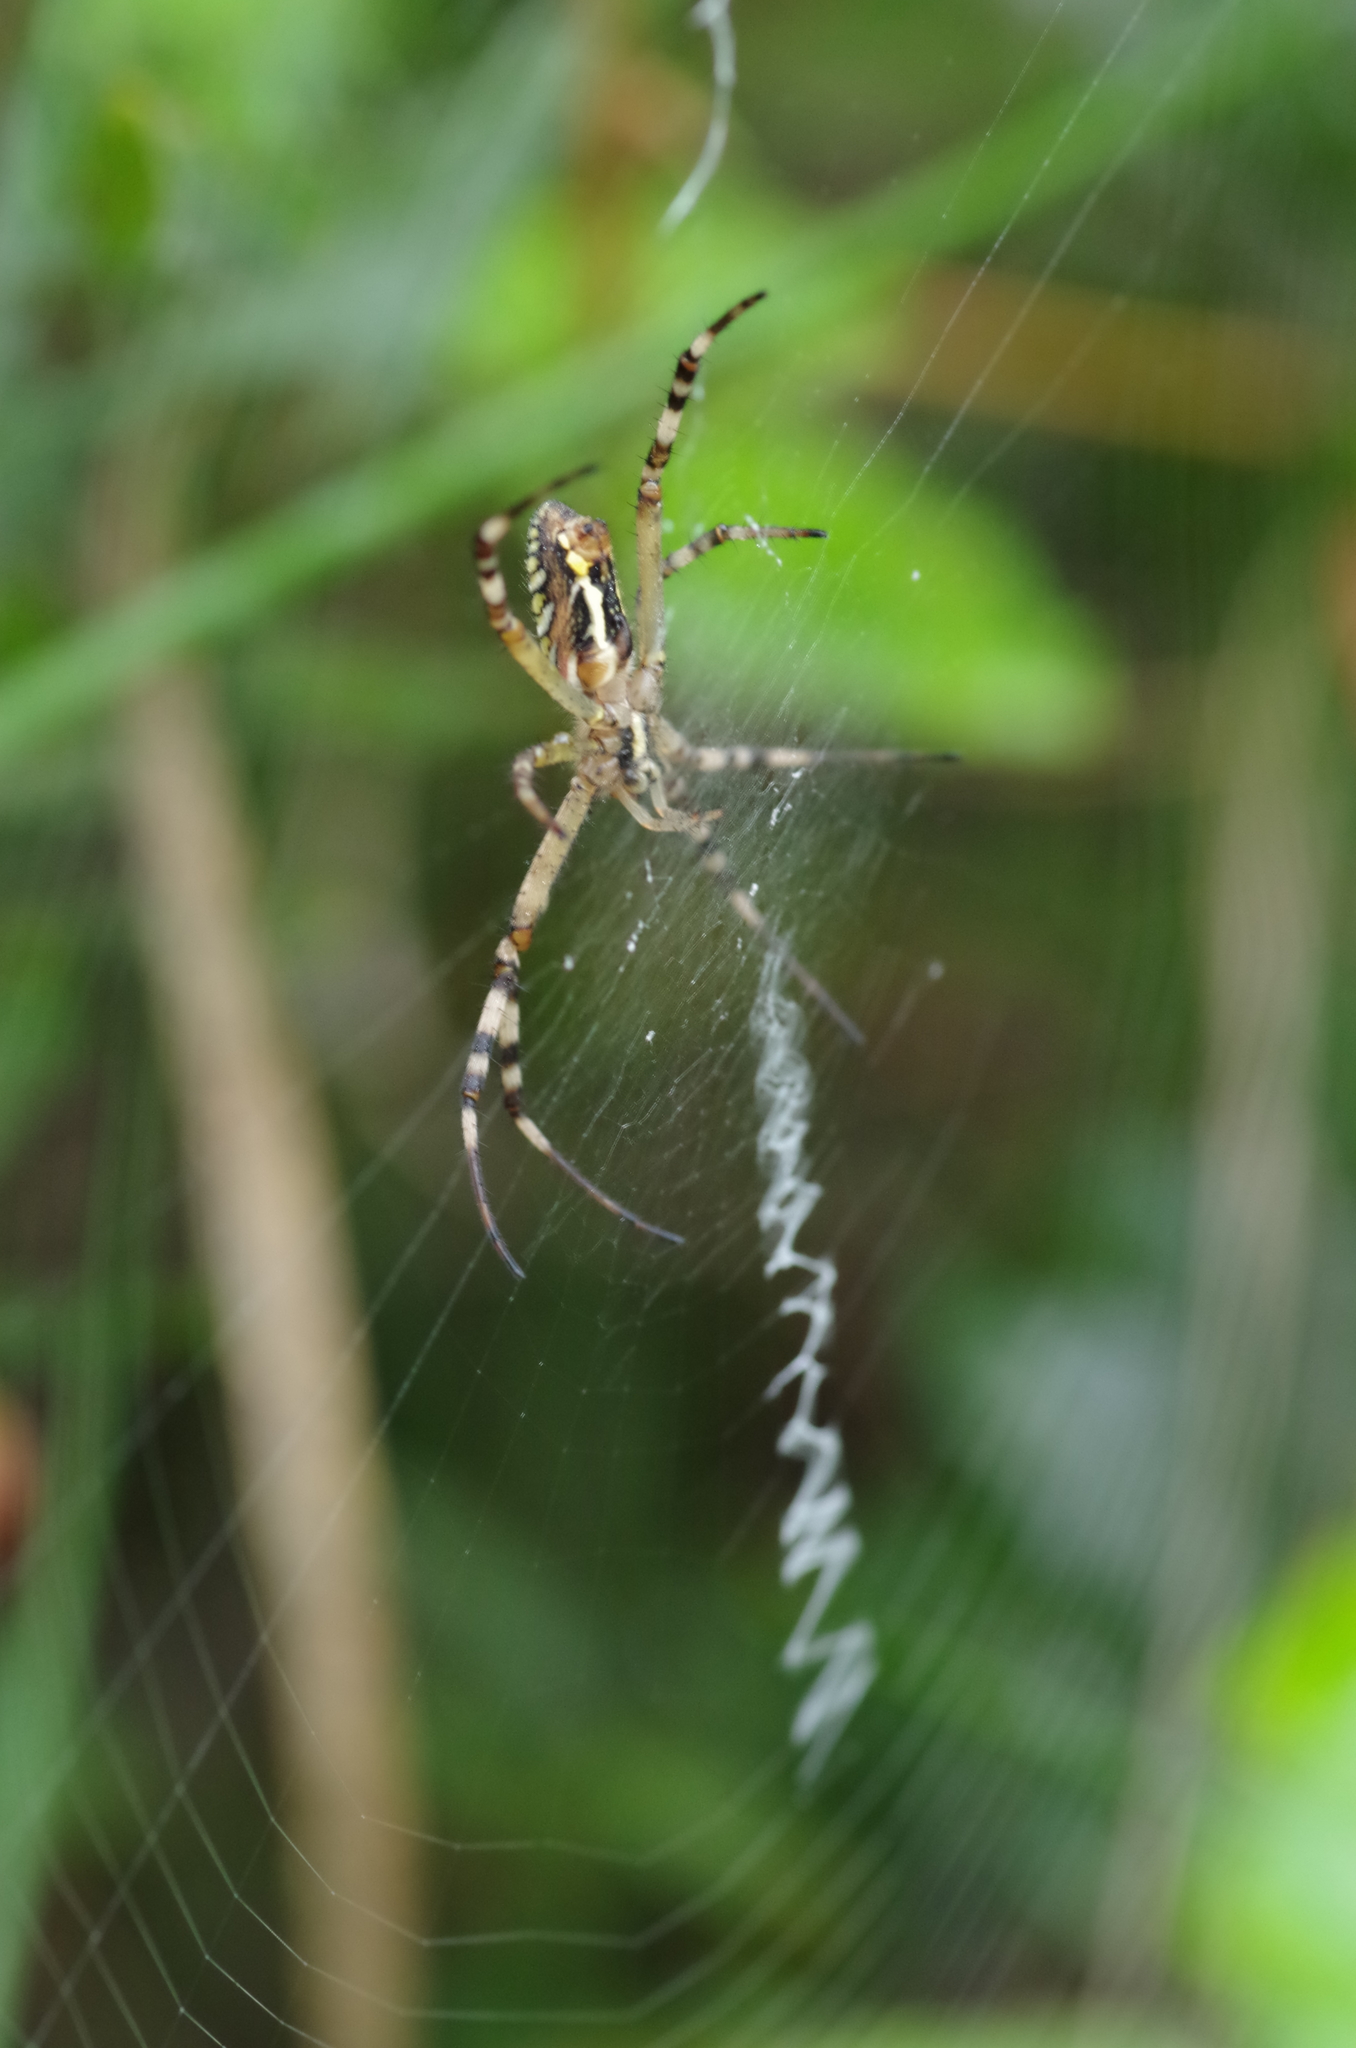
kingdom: Animalia
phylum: Arthropoda
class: Arachnida
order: Araneae
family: Araneidae
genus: Argiope
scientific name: Argiope bruennichi
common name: Wasp spider
